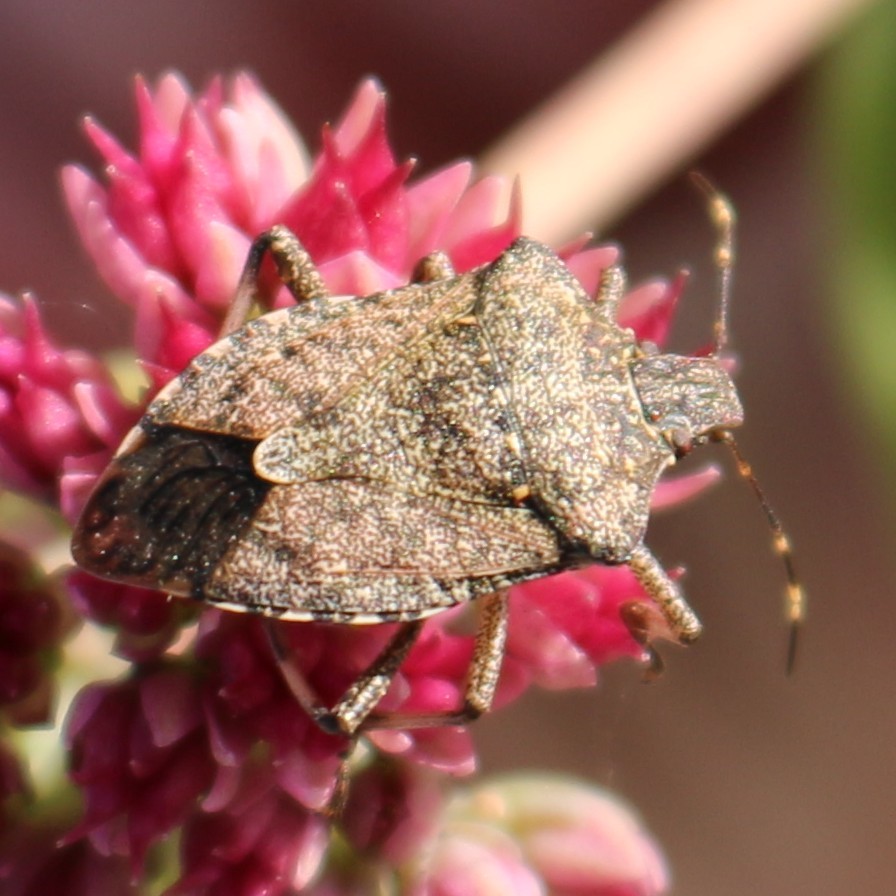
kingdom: Animalia
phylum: Arthropoda
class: Insecta
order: Hemiptera
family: Pentatomidae
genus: Halyomorpha
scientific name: Halyomorpha halys
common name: Brown marmorated stink bug
